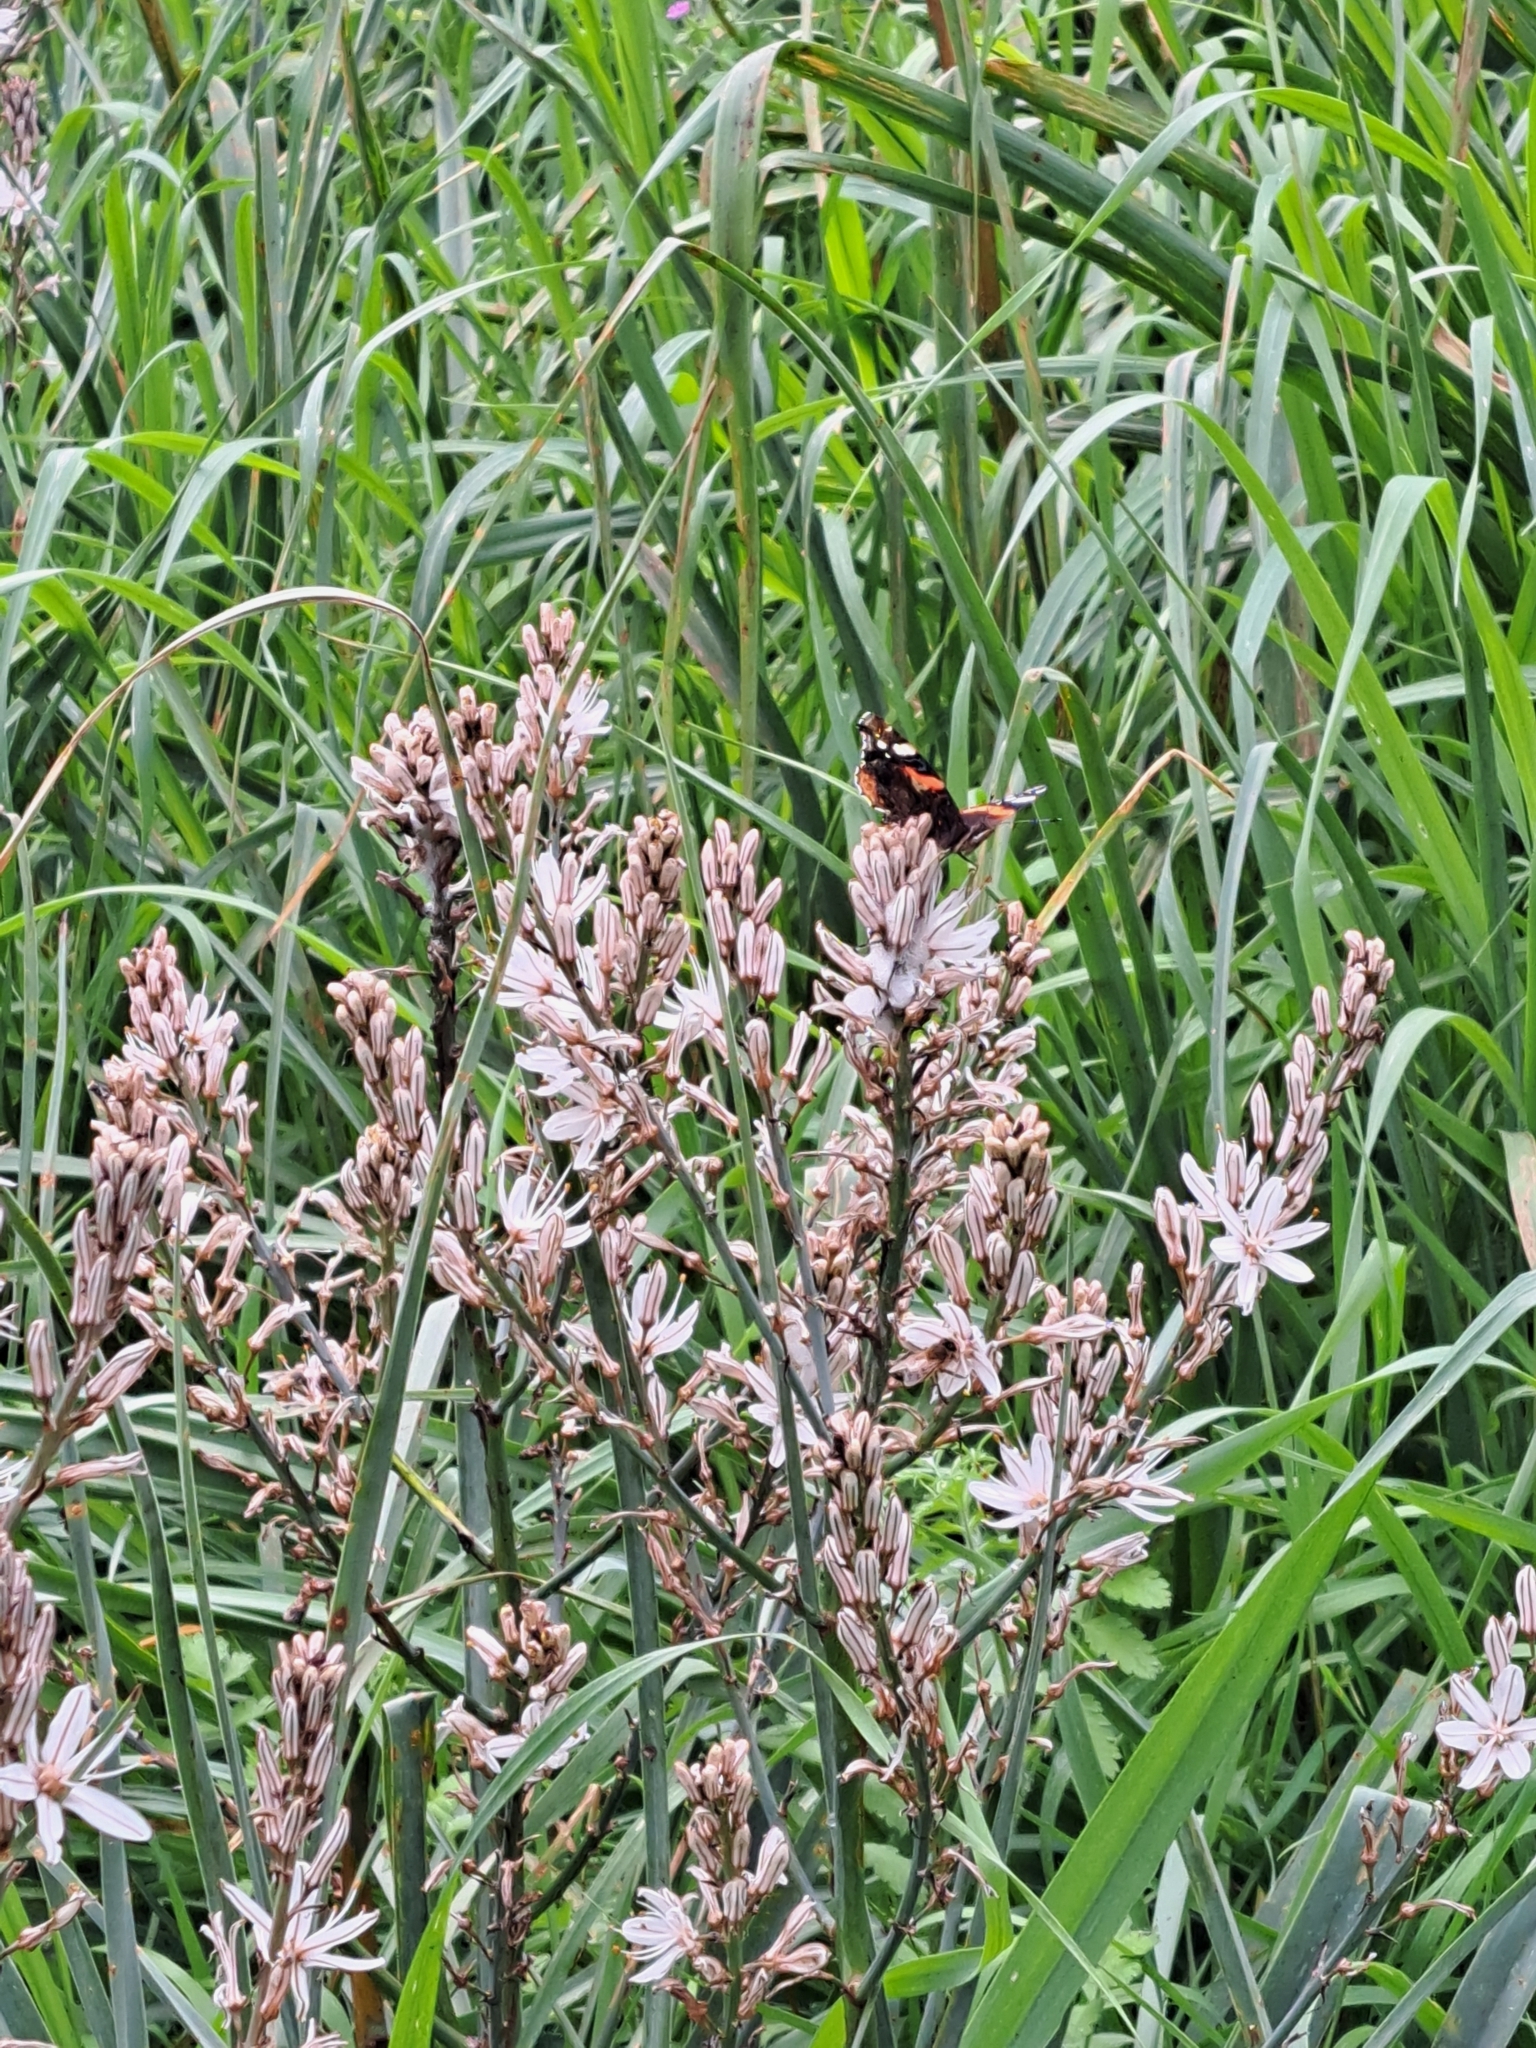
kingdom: Animalia
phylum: Arthropoda
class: Insecta
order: Lepidoptera
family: Nymphalidae
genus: Vanessa
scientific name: Vanessa atalanta
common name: Red admiral
